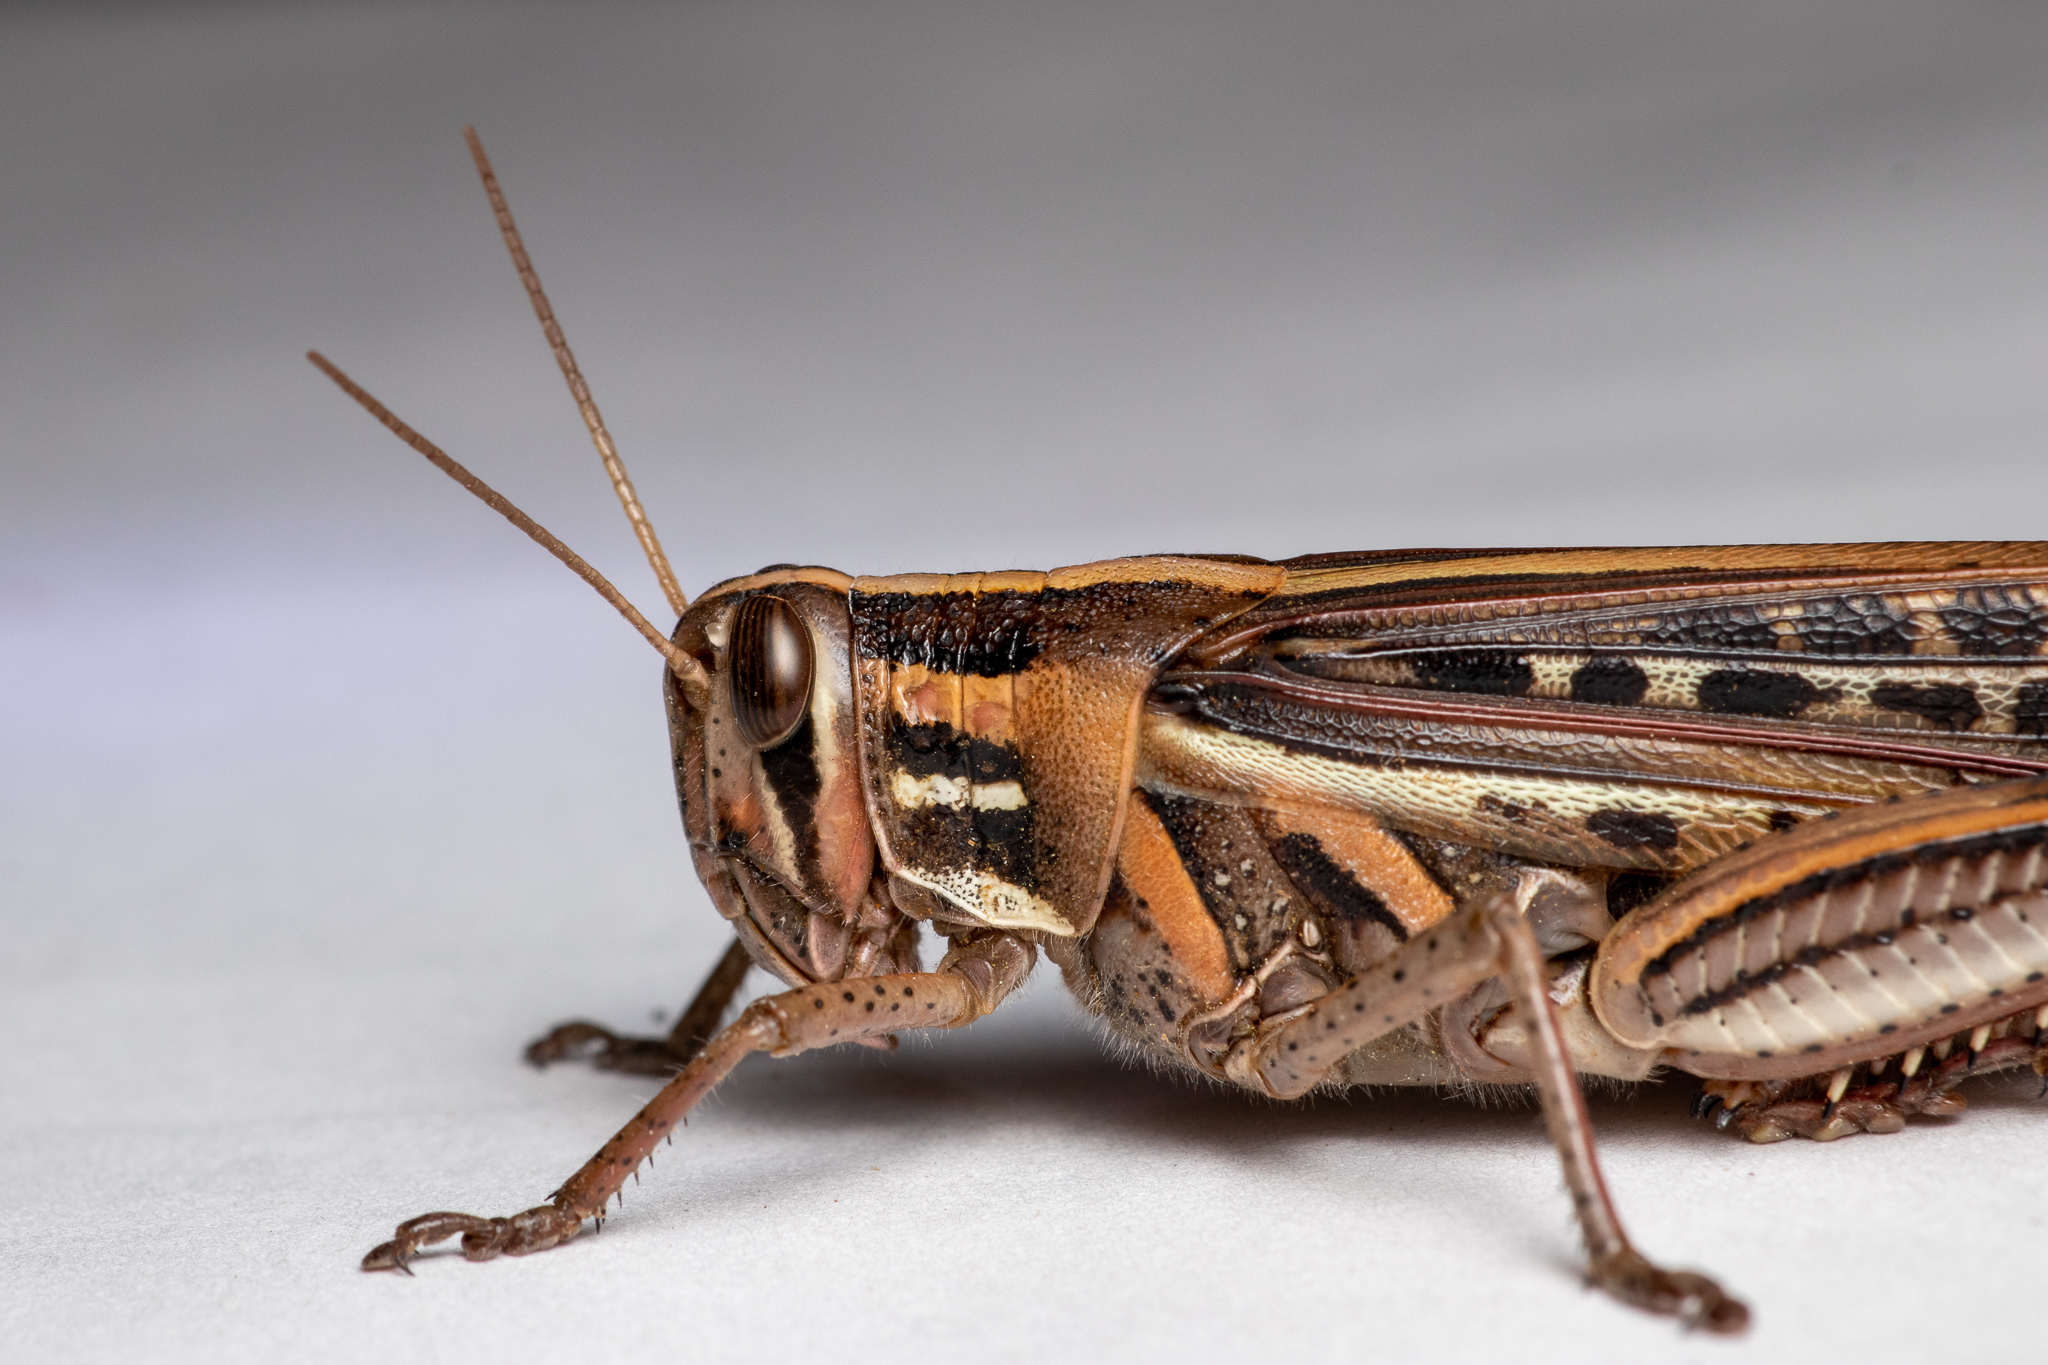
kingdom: Animalia
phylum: Arthropoda
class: Insecta
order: Orthoptera
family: Acrididae
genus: Schistocerca
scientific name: Schistocerca americana
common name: American bird locust
